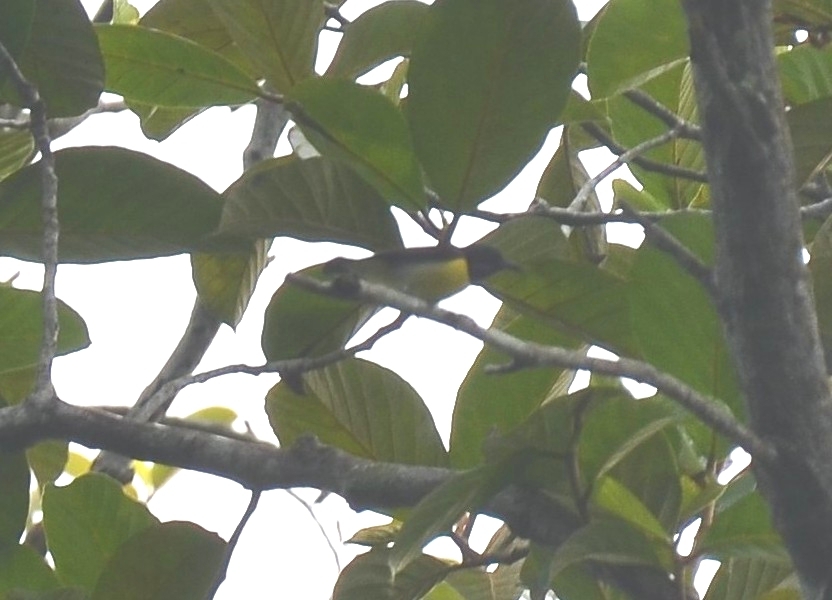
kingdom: Animalia
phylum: Chordata
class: Aves
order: Passeriformes
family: Nectariniidae
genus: Leptocoma
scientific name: Leptocoma zeylonica
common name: Purple-rumped sunbird
